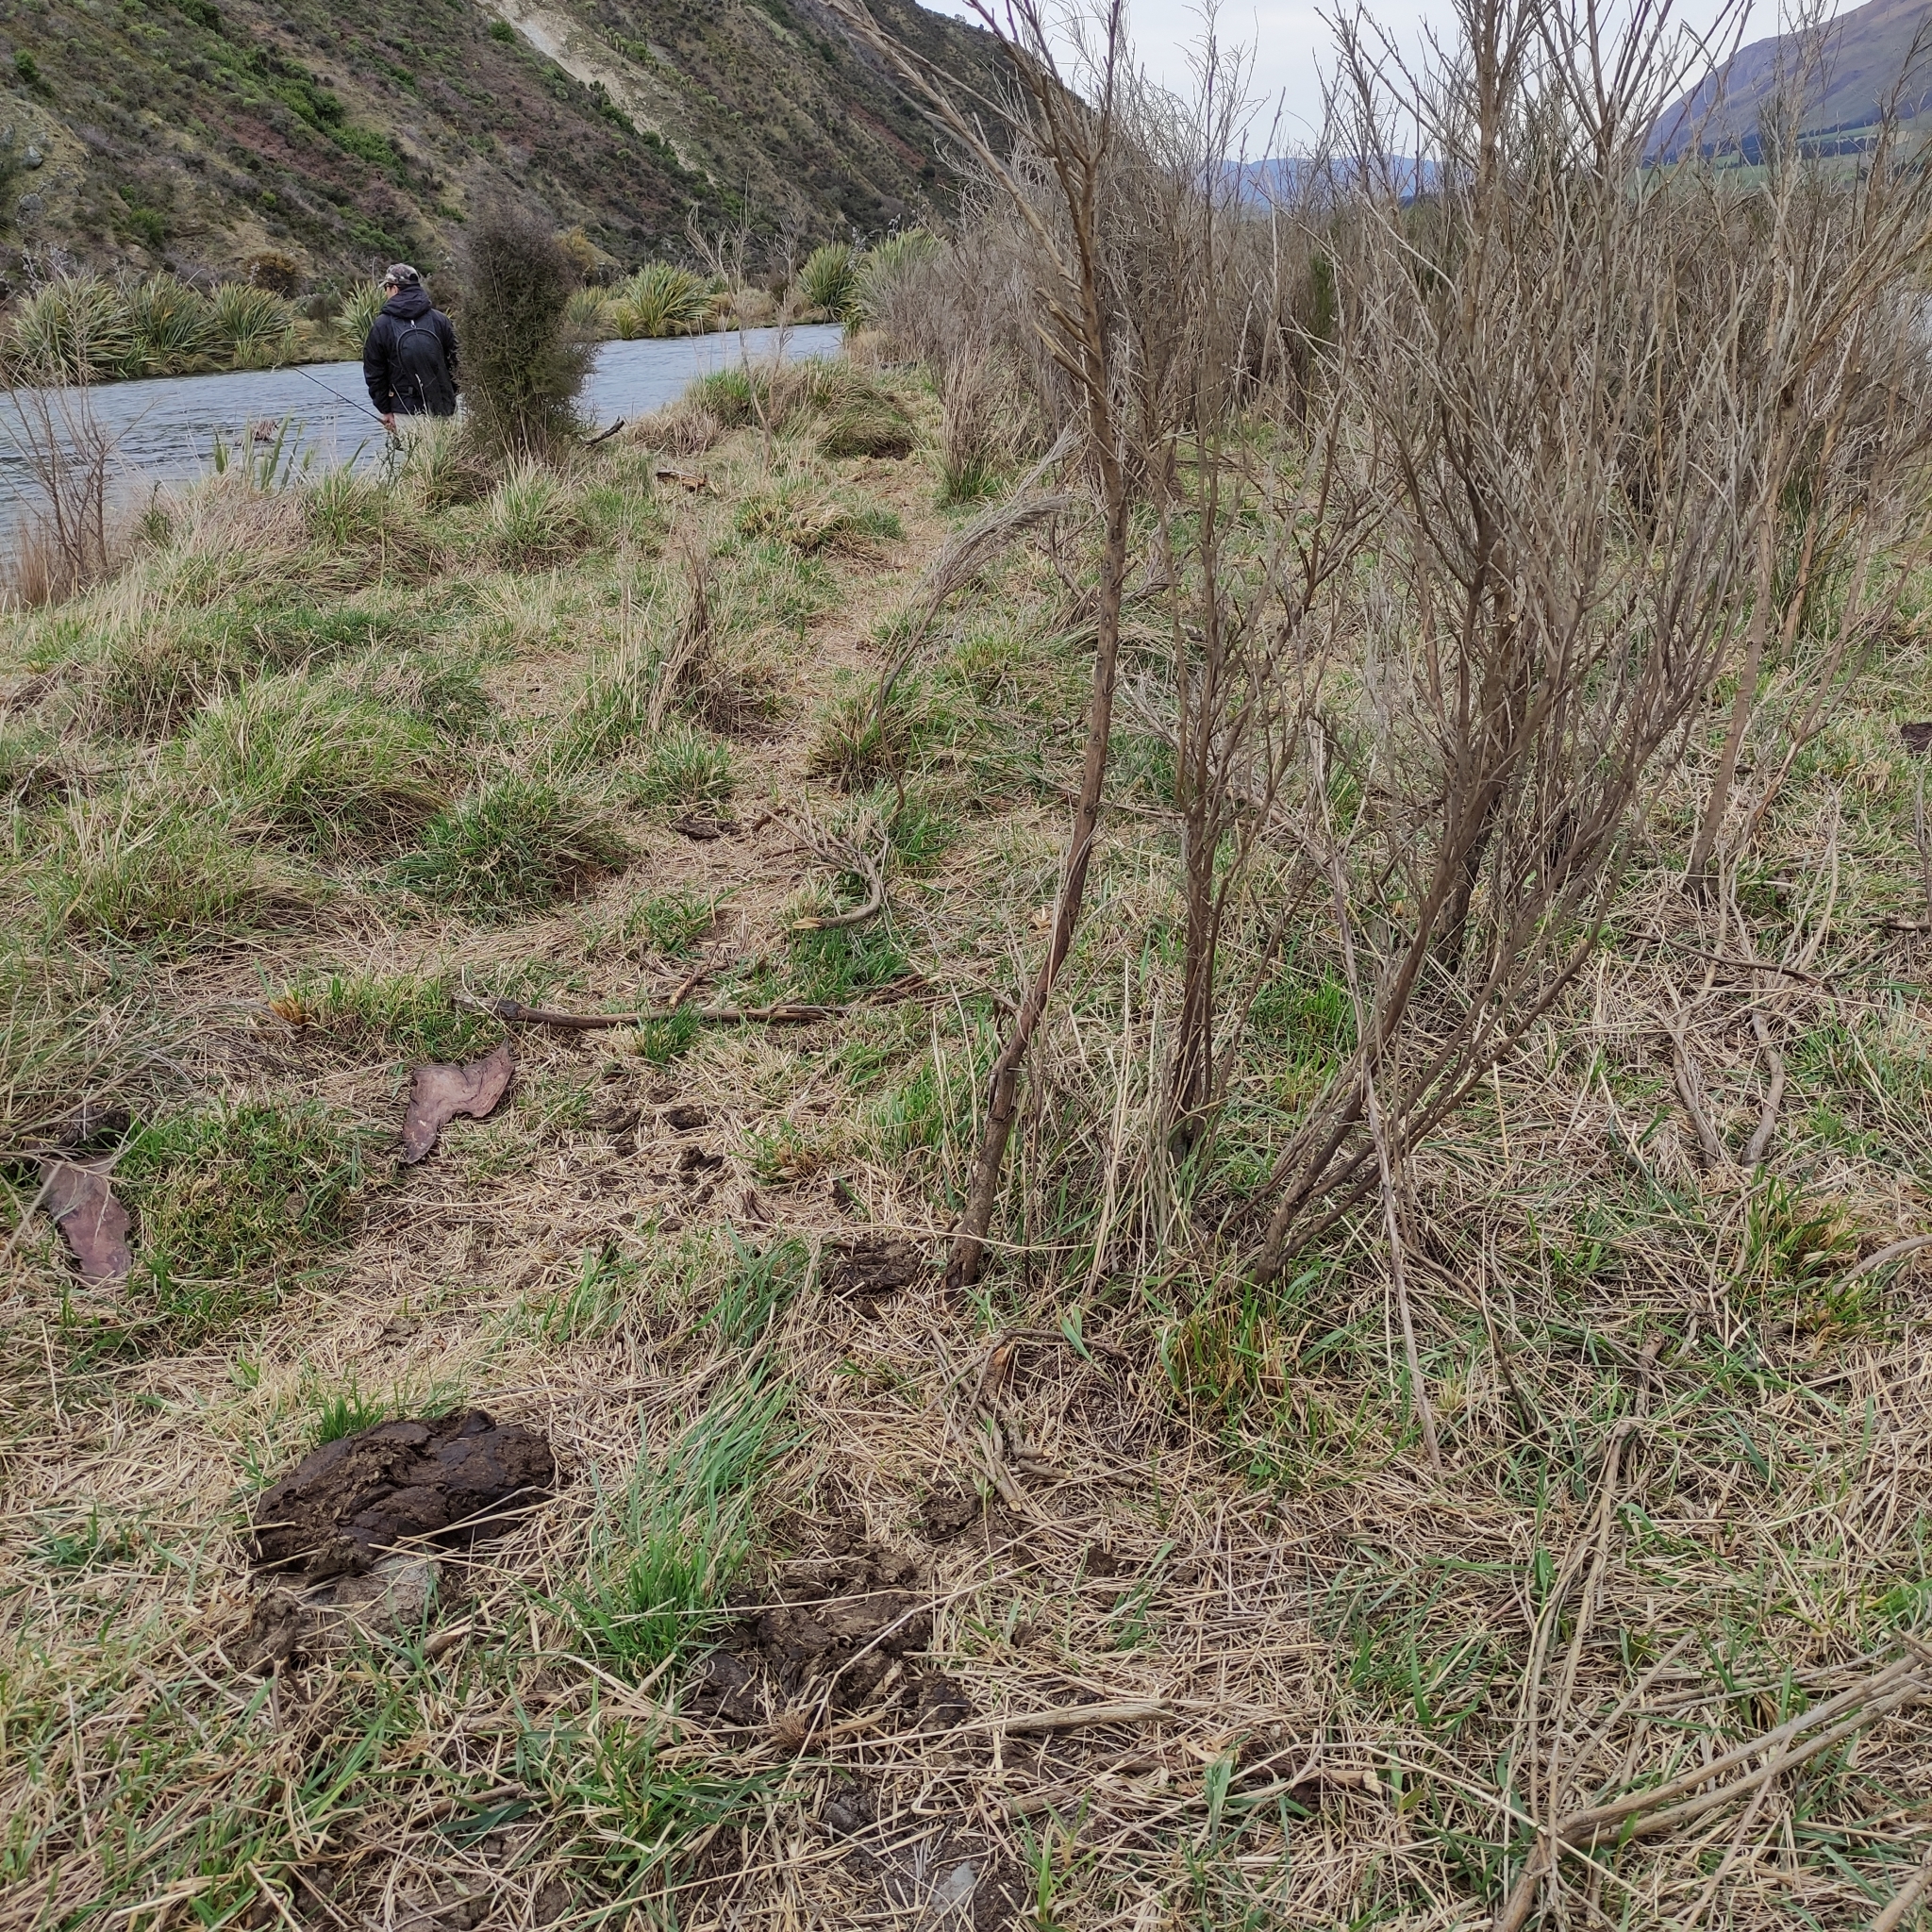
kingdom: Animalia
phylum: Chordata
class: Mammalia
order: Artiodactyla
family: Bovidae
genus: Bos
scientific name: Bos taurus
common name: Domesticated cattle
